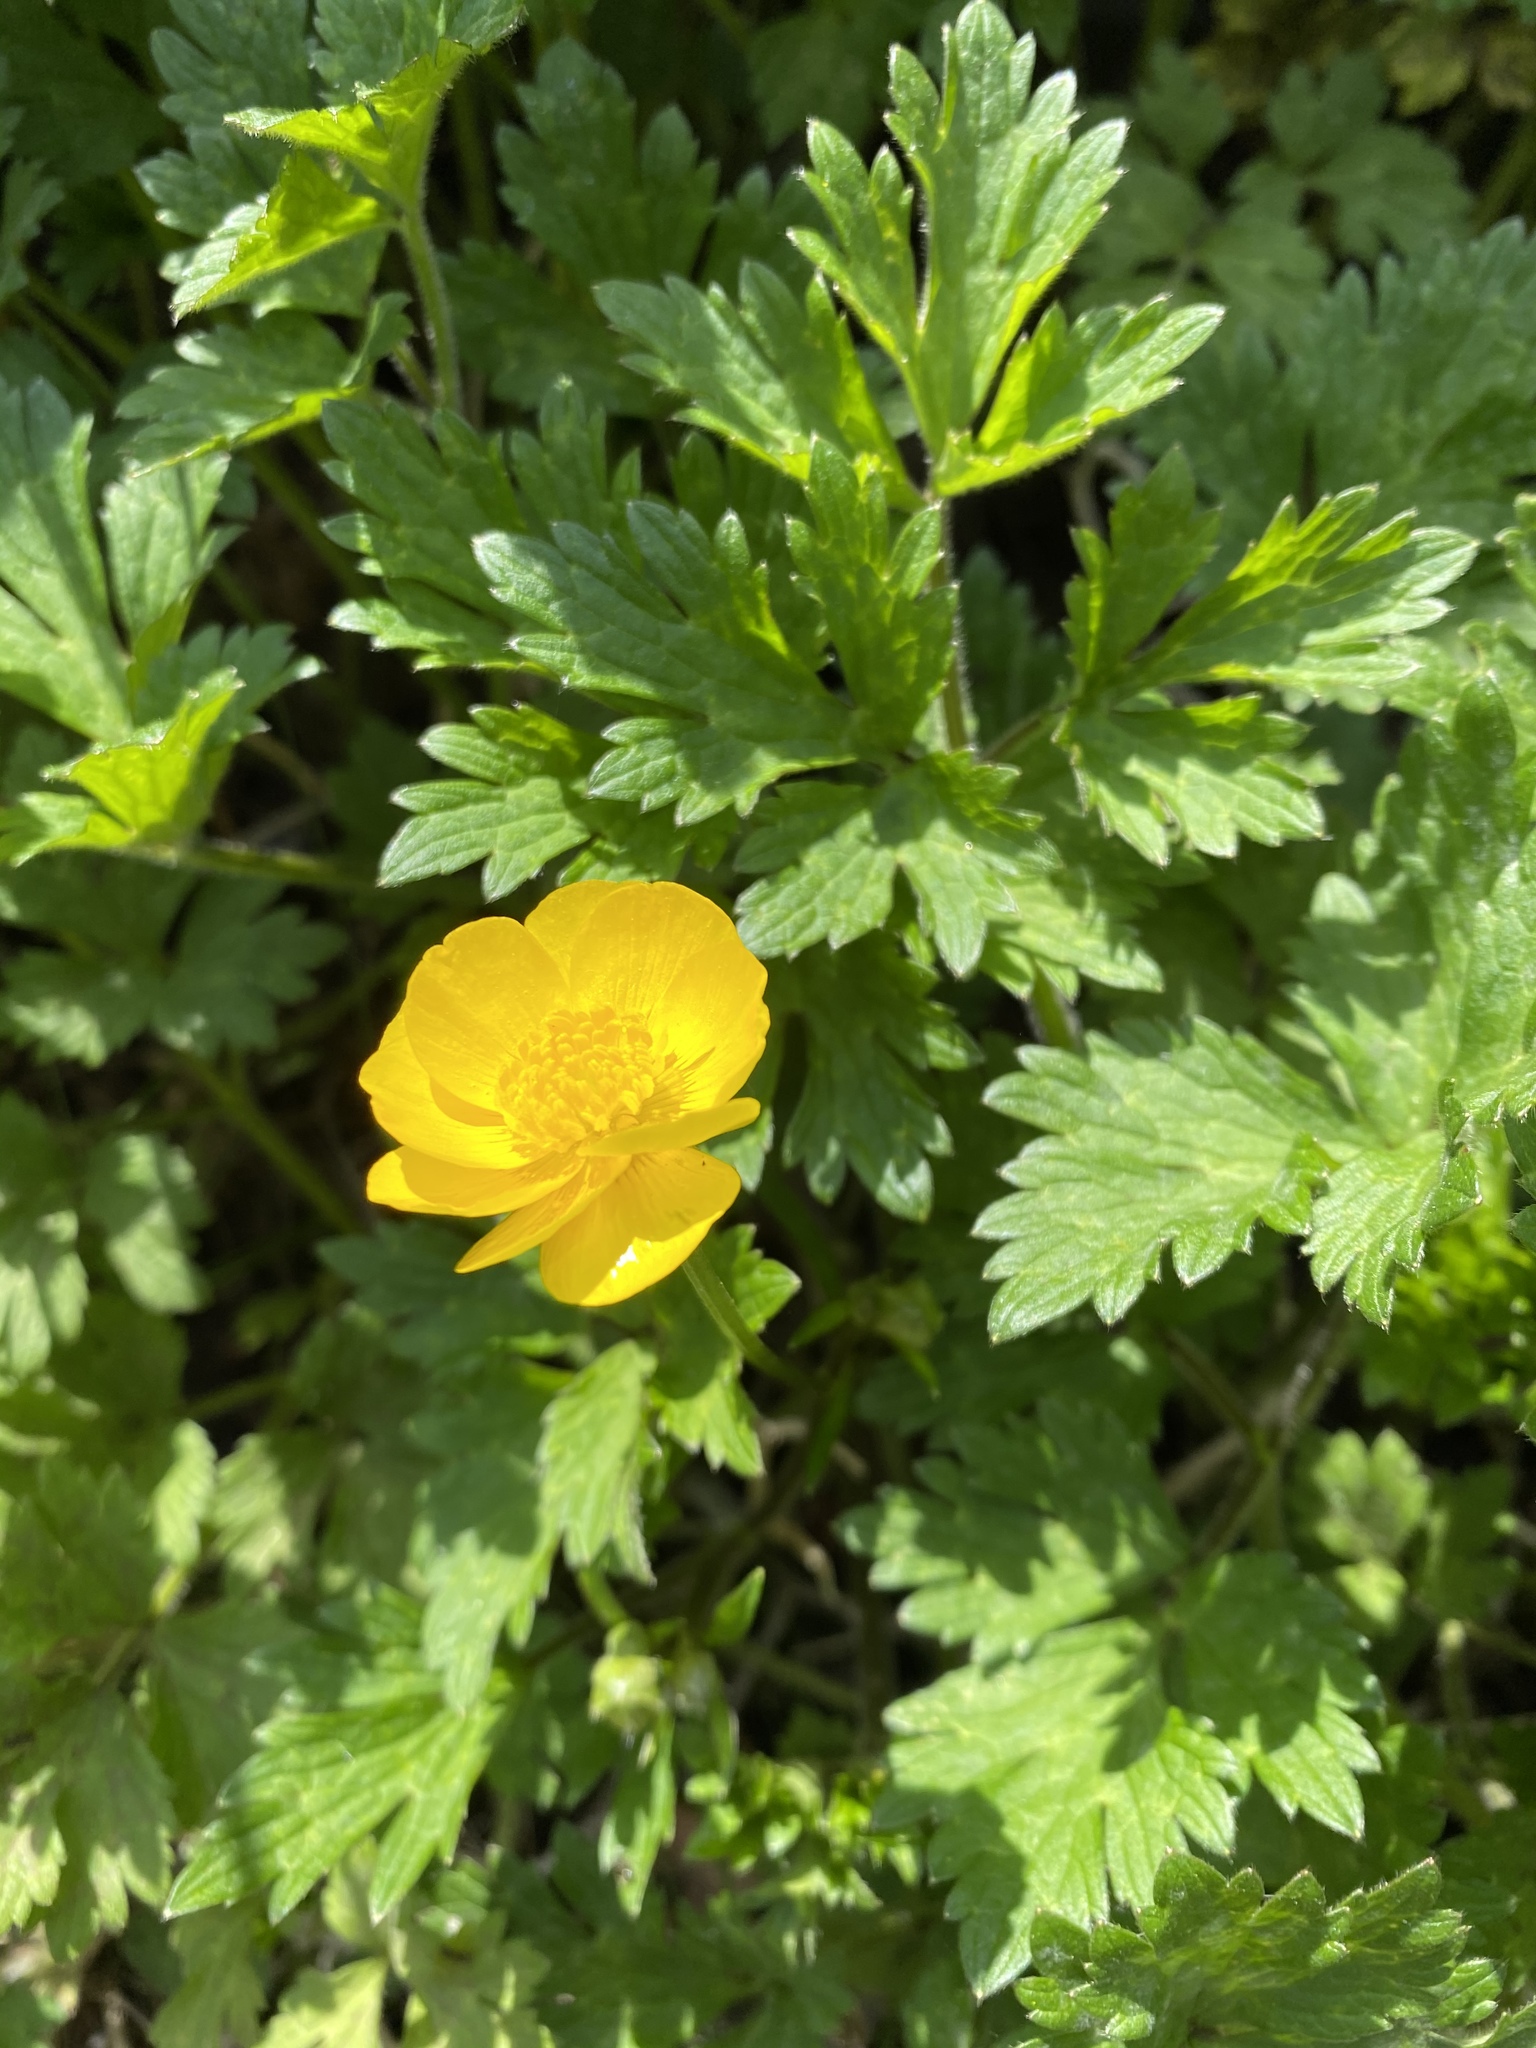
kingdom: Plantae
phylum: Tracheophyta
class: Magnoliopsida
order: Ranunculales
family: Ranunculaceae
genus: Ranunculus
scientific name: Ranunculus repens
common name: Creeping buttercup
